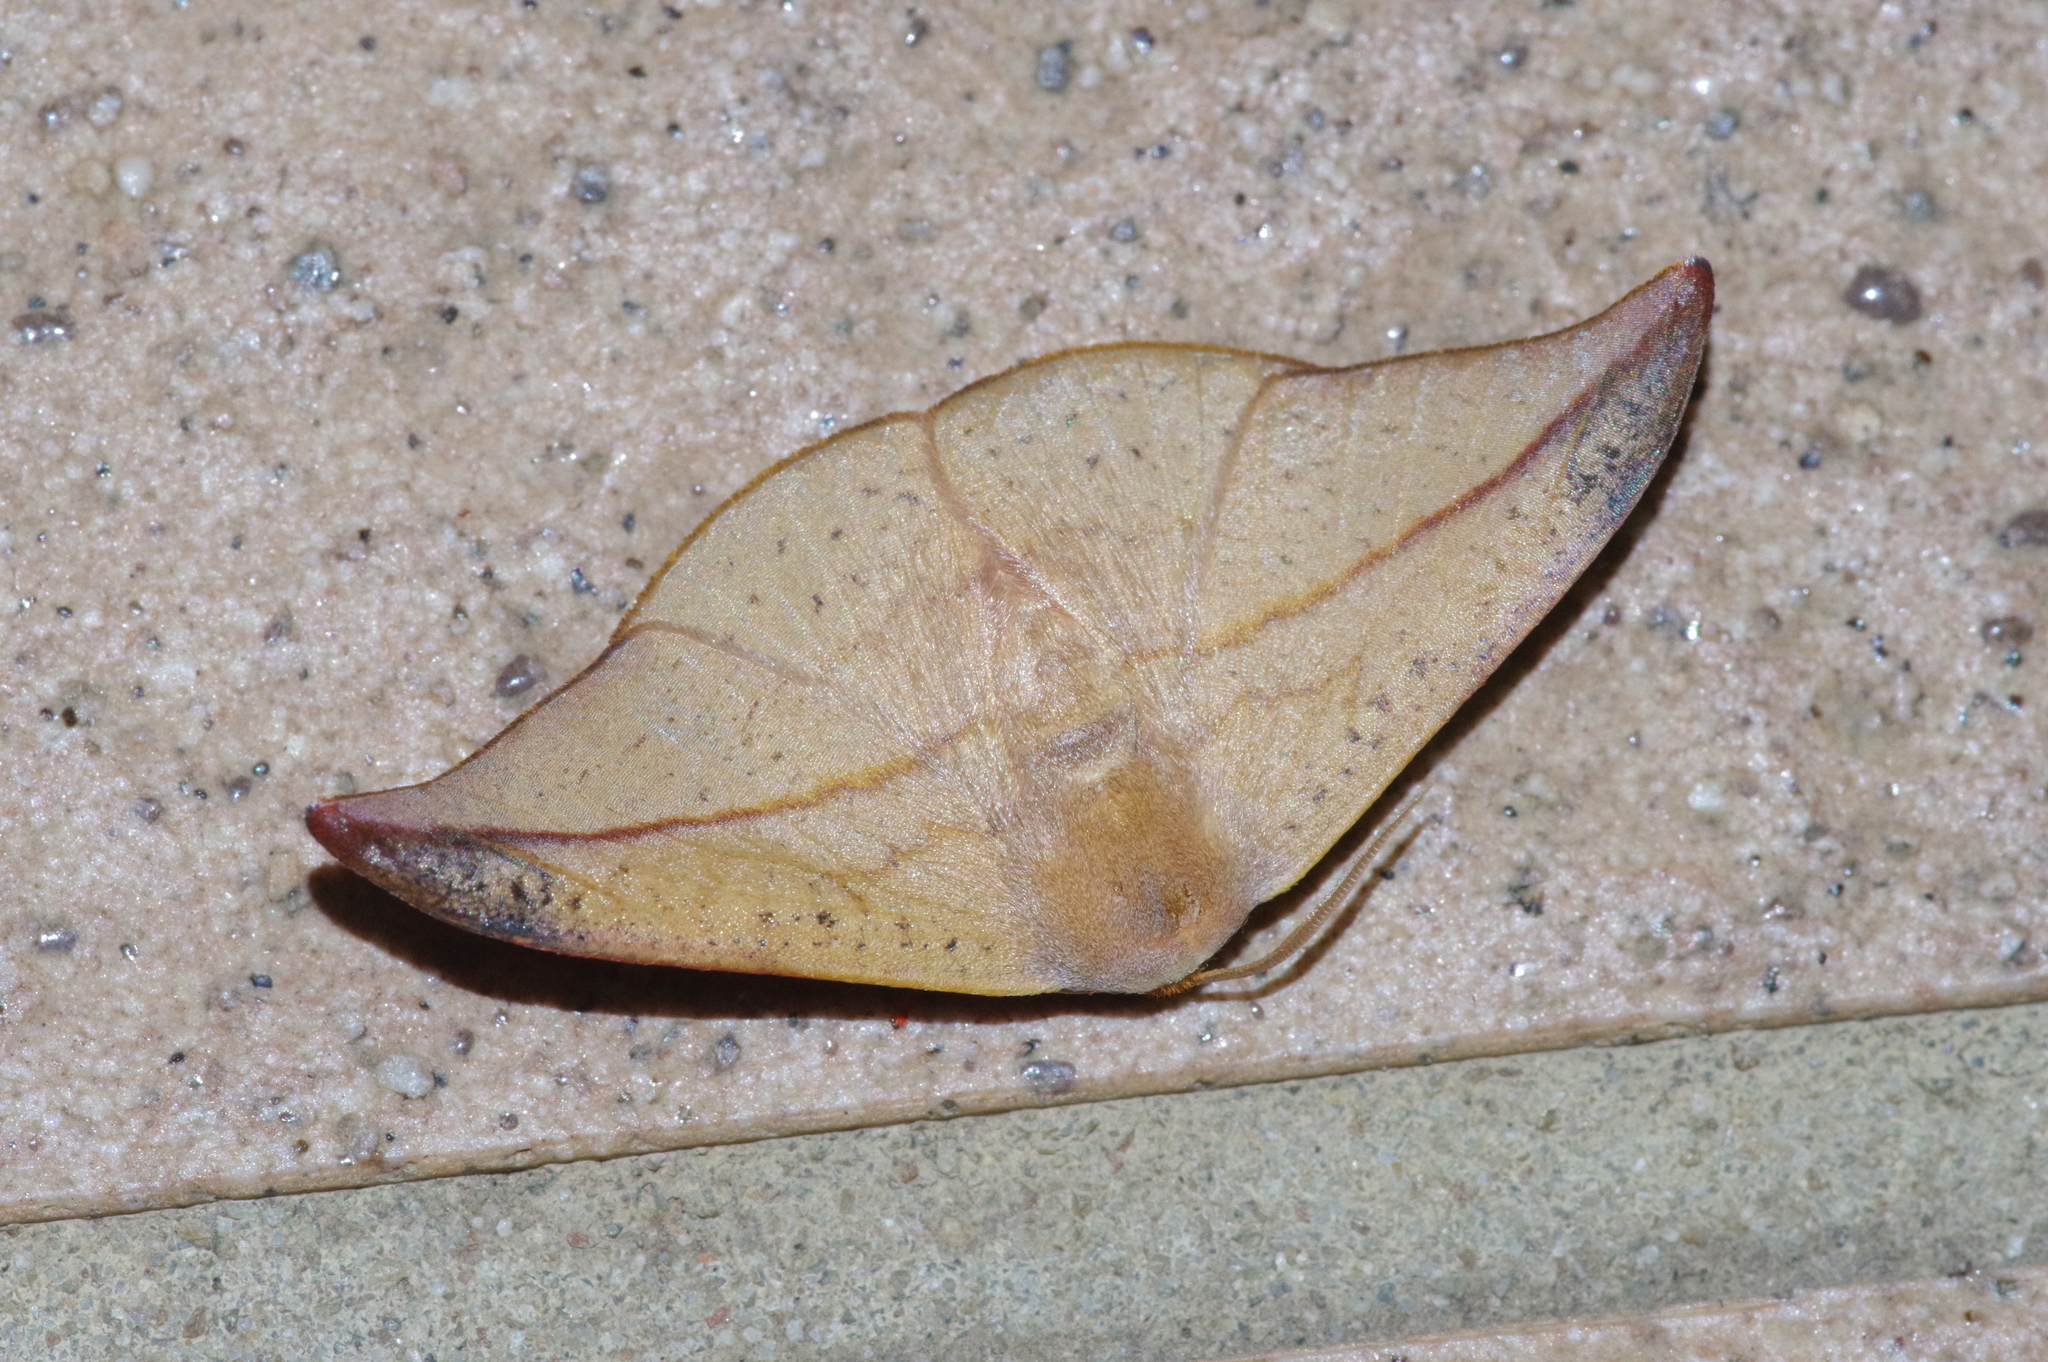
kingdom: Animalia
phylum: Arthropoda
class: Insecta
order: Lepidoptera
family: Drepanidae
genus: Oreta
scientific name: Oreta insignis
